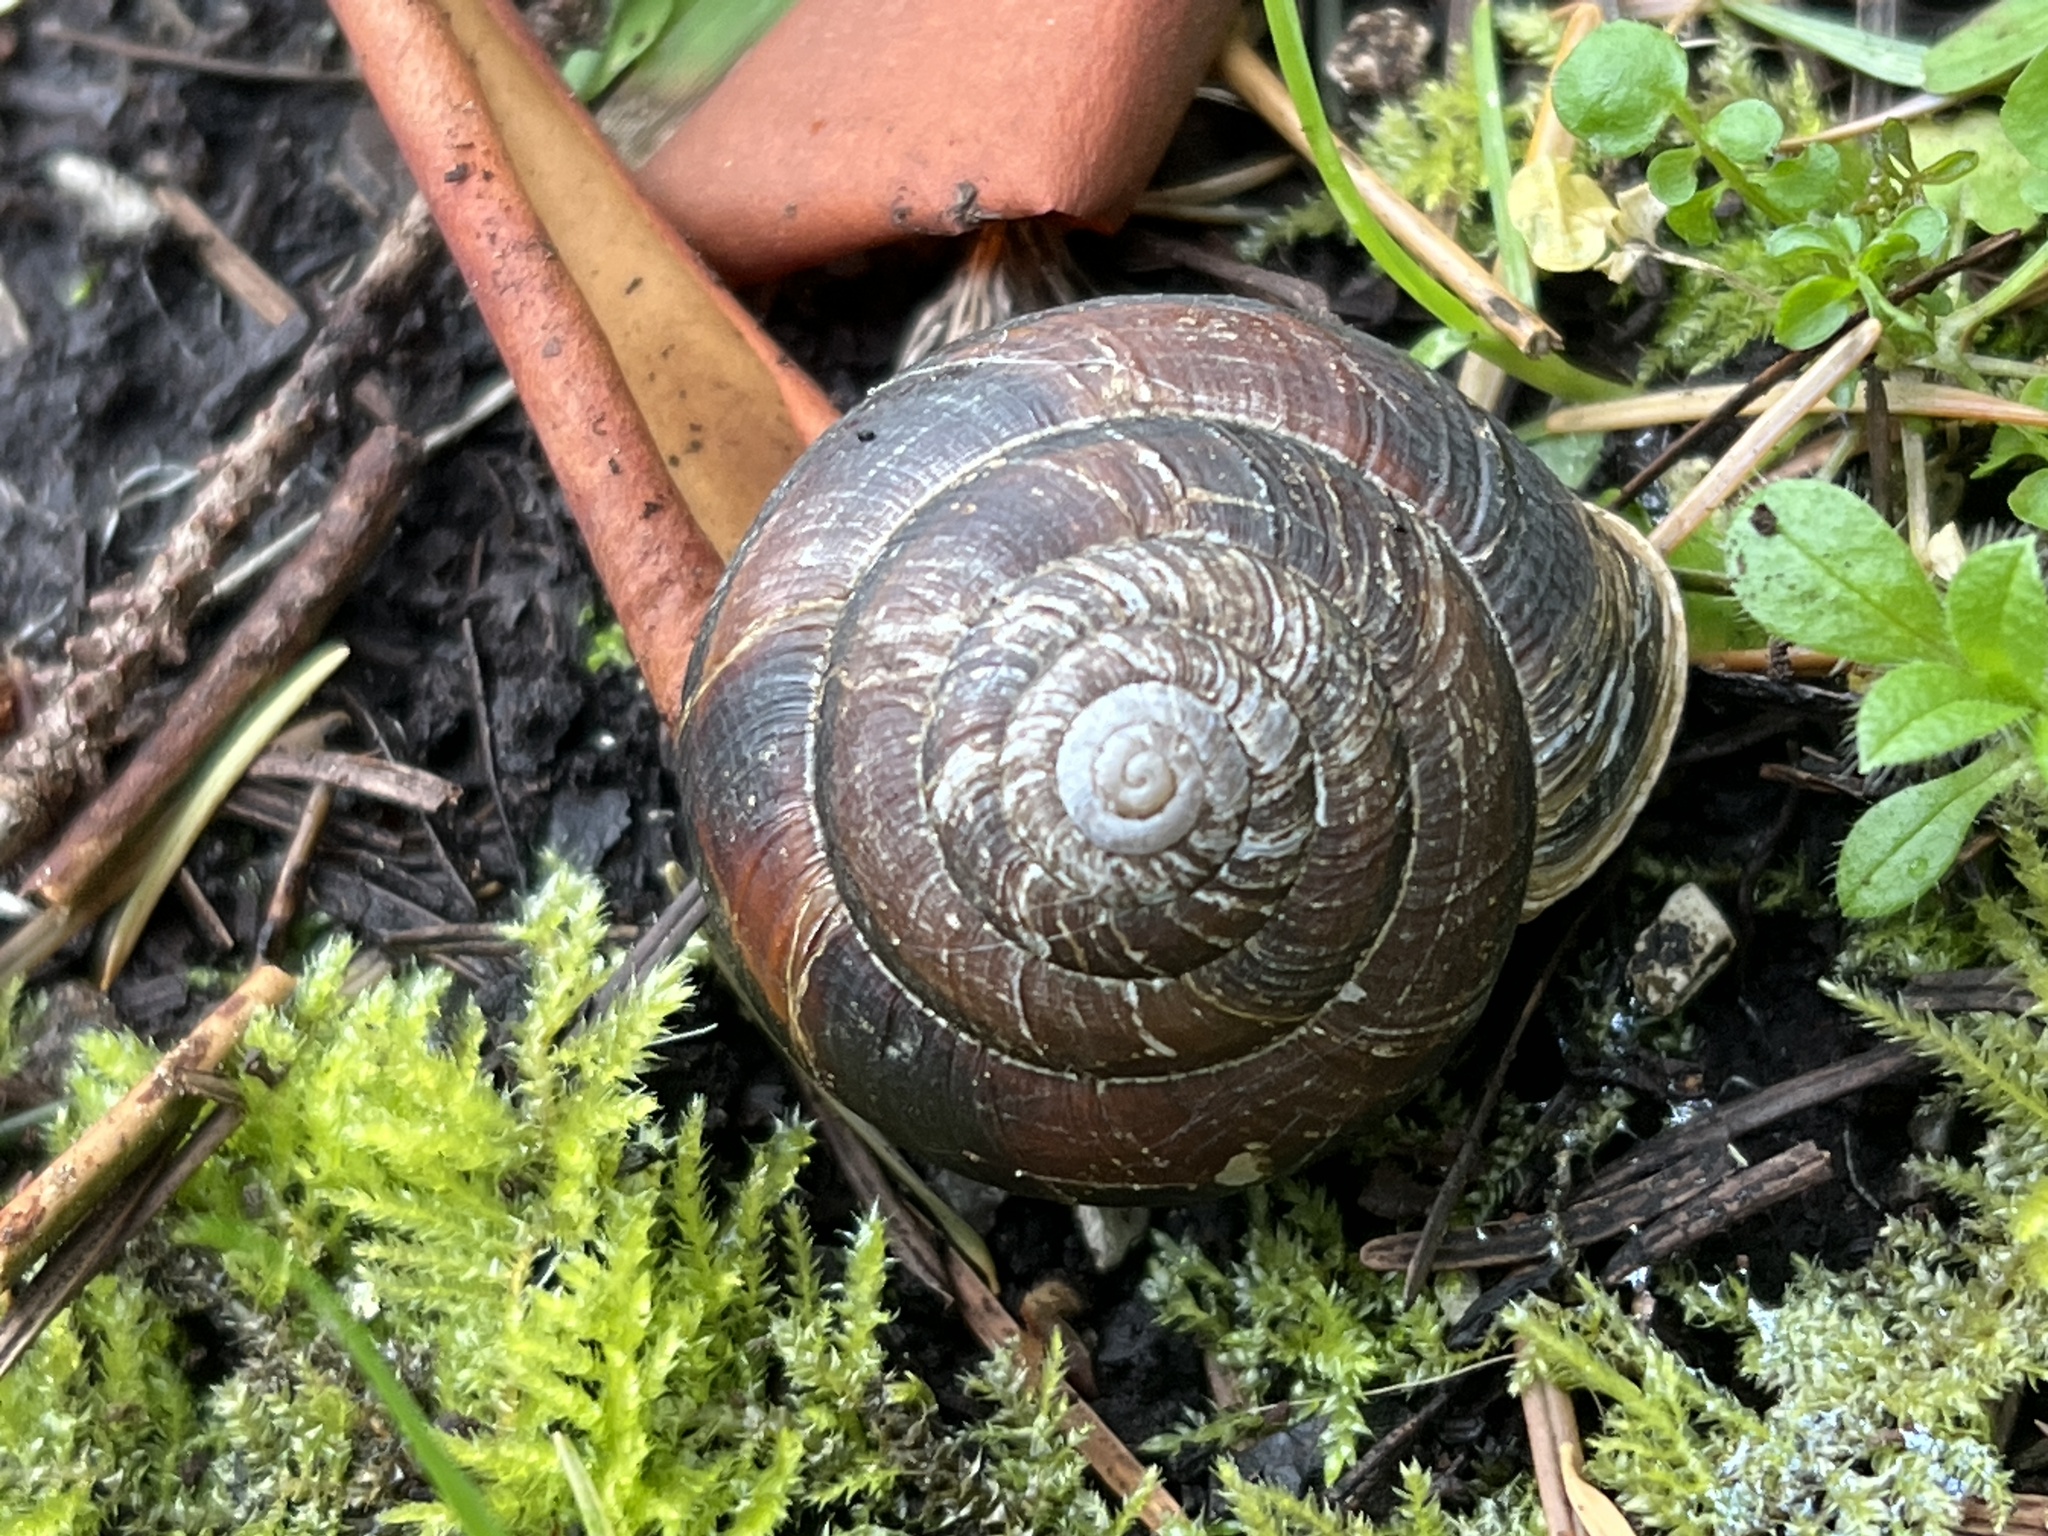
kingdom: Animalia
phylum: Mollusca
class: Gastropoda
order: Stylommatophora
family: Xanthonychidae
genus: Monadenia
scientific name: Monadenia fidelis
